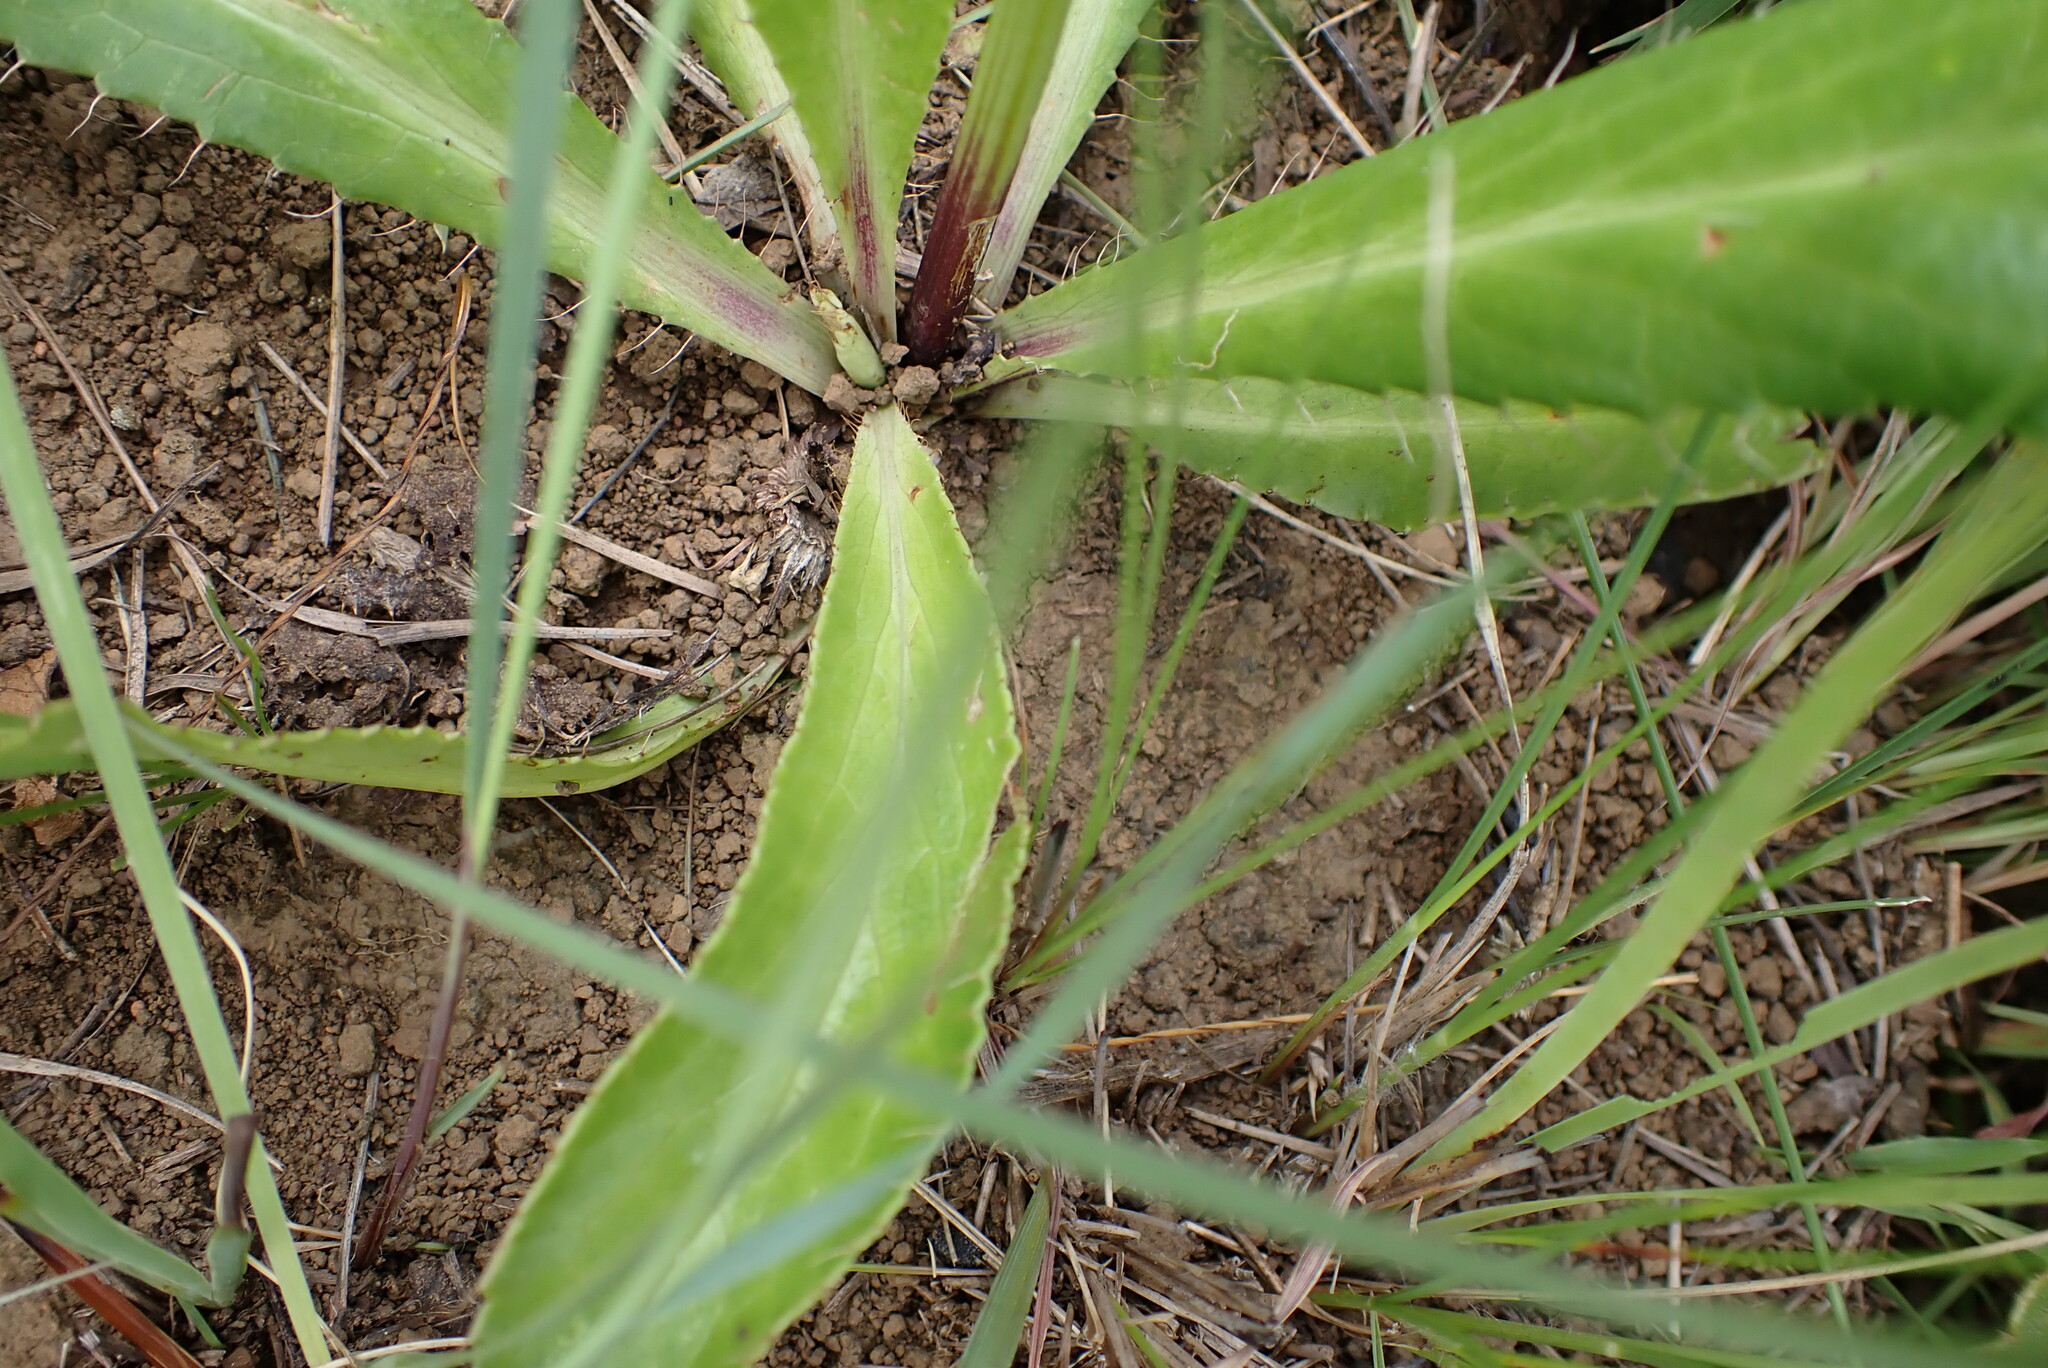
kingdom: Plantae
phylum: Tracheophyta
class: Magnoliopsida
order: Apiales
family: Apiaceae
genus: Alepidea
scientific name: Alepidea peduncularis
